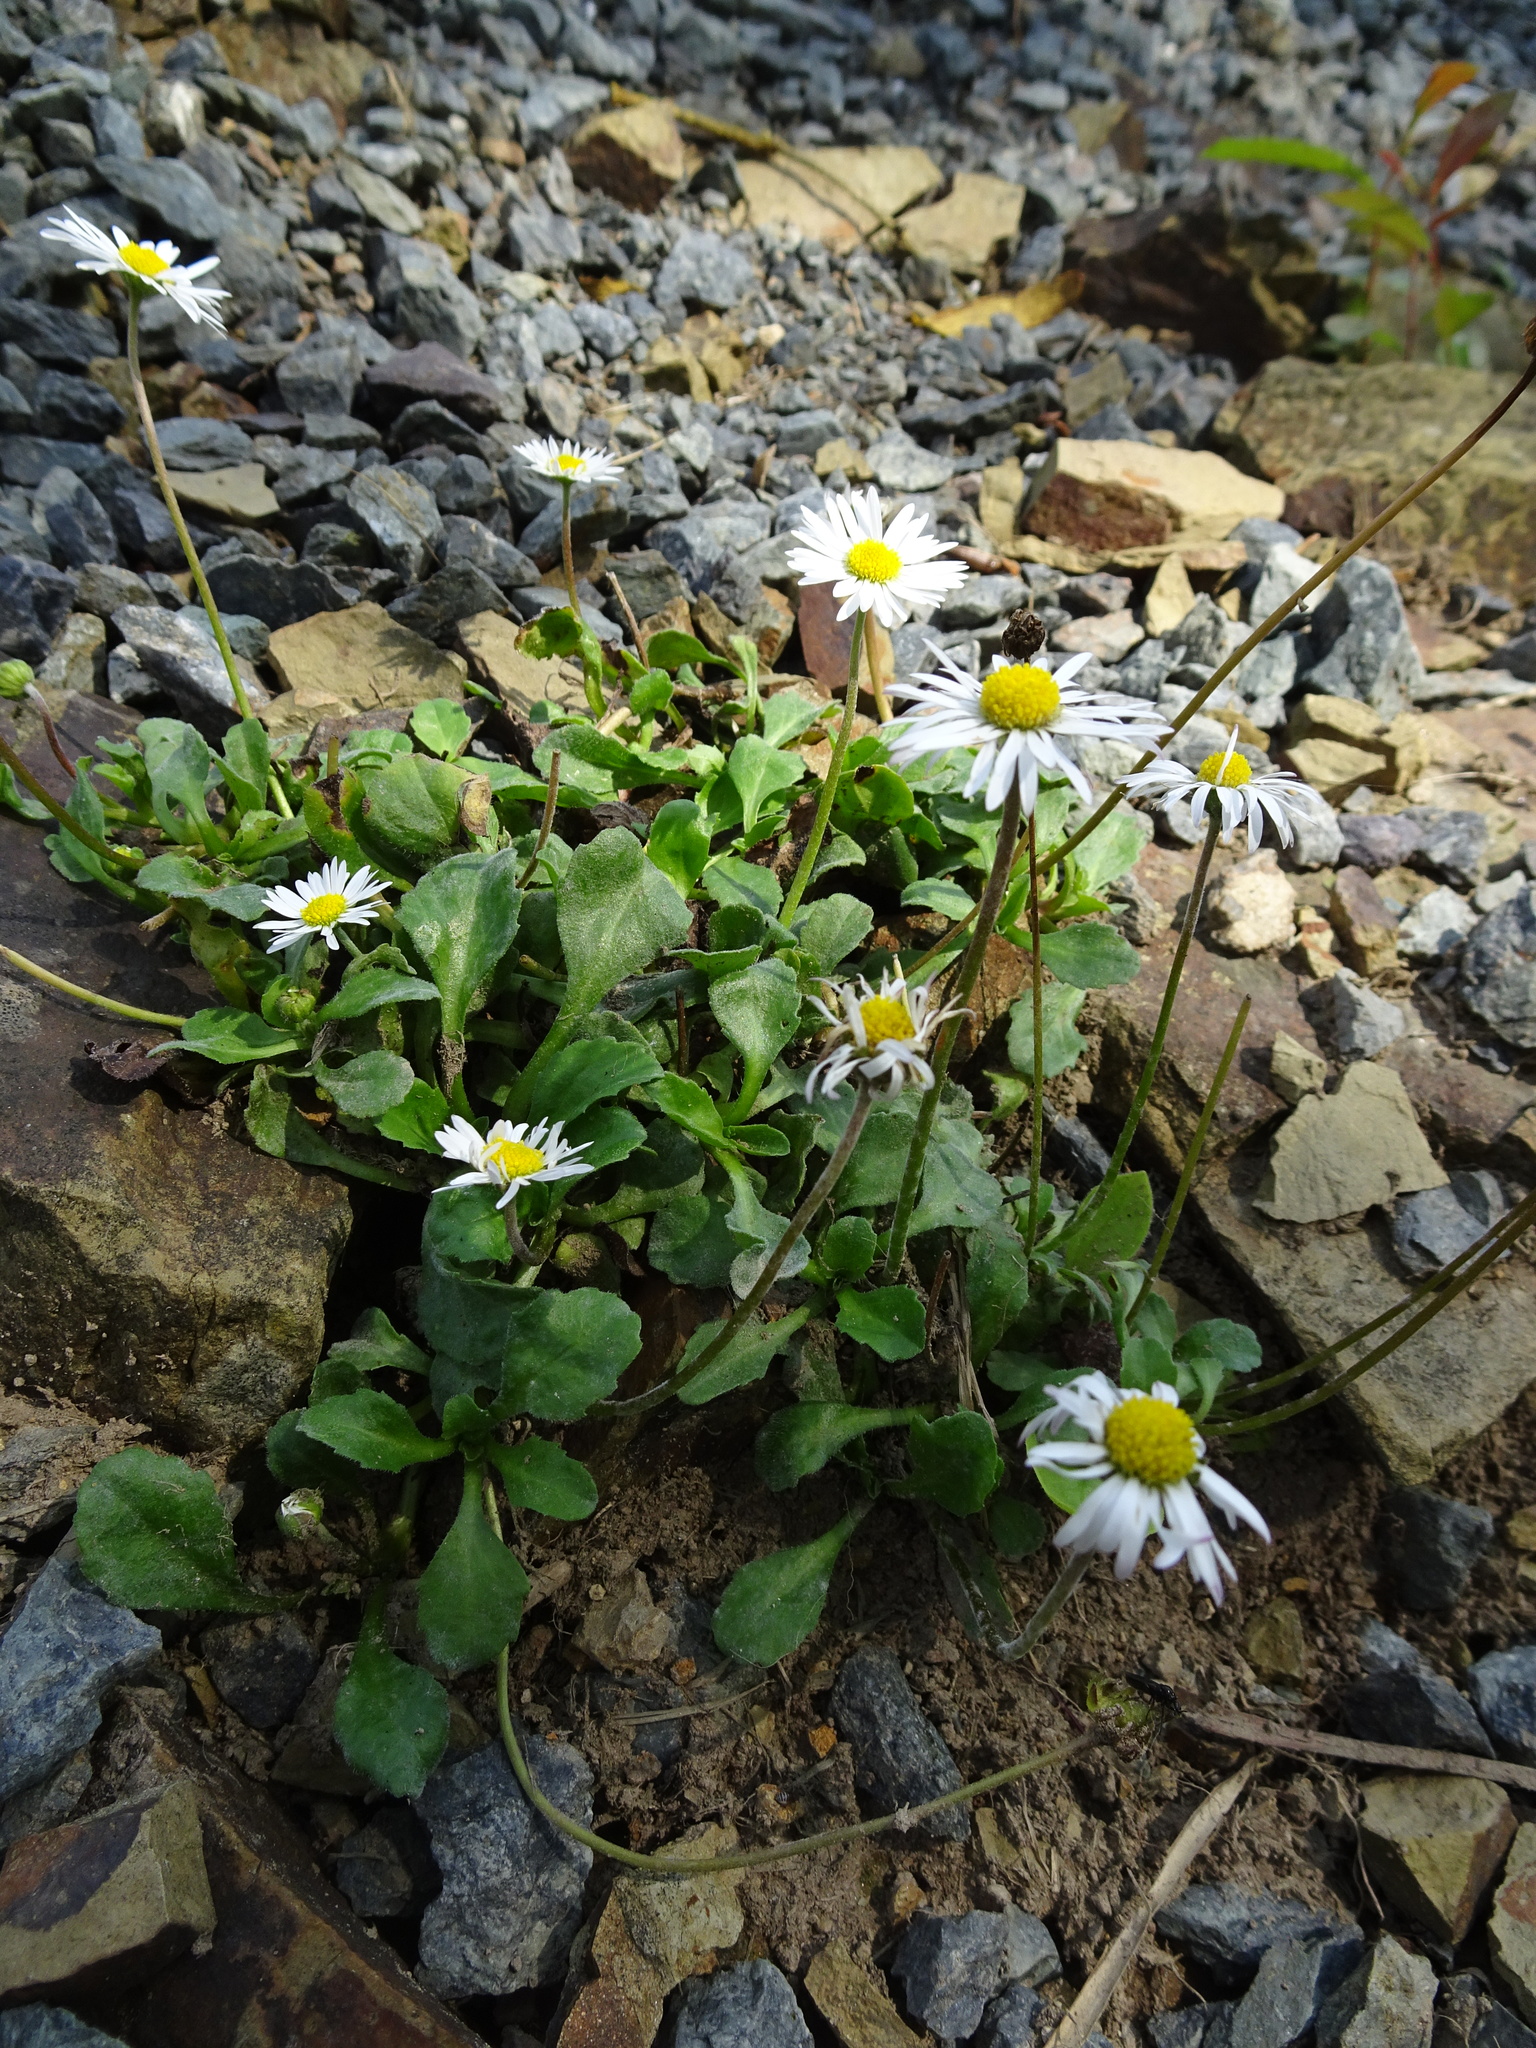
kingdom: Plantae
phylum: Tracheophyta
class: Magnoliopsida
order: Asterales
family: Asteraceae
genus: Bellis
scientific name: Bellis perennis
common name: Lawndaisy
